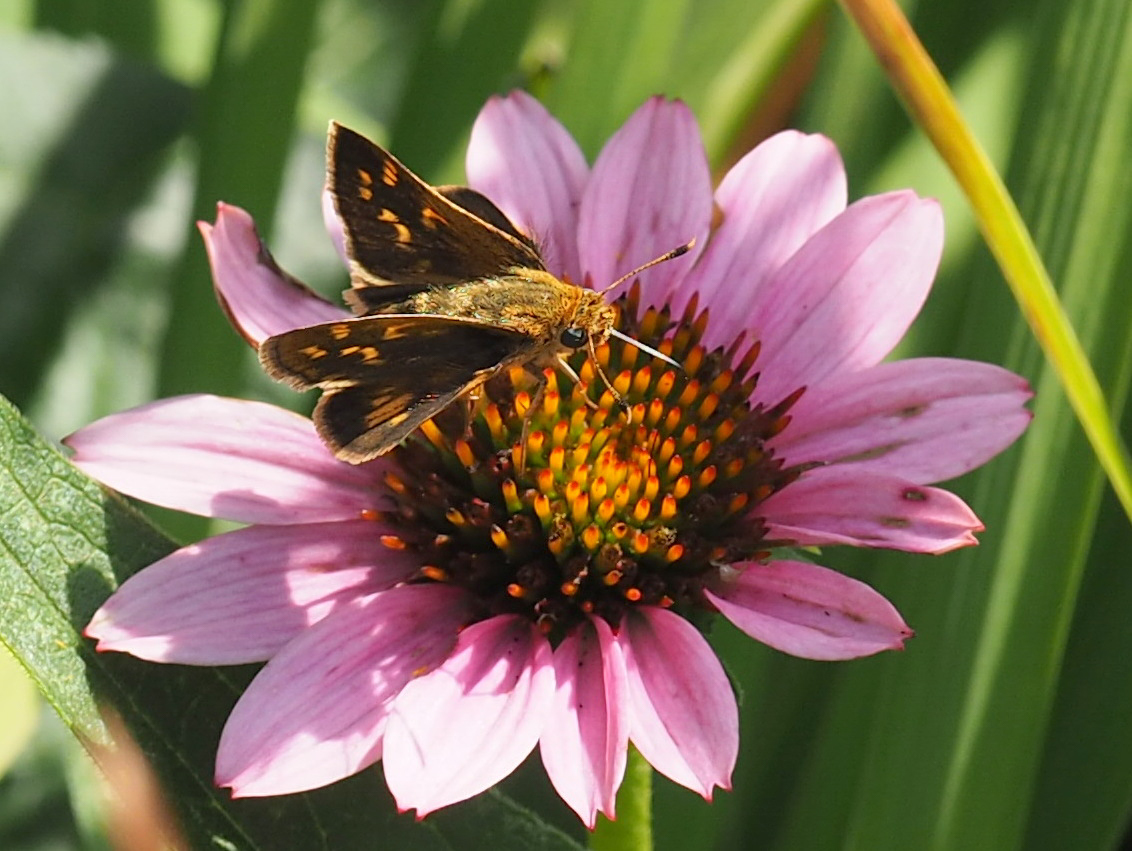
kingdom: Animalia
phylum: Arthropoda
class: Insecta
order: Lepidoptera
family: Hesperiidae
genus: Polites
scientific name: Polites coras
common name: Peck's skipper
